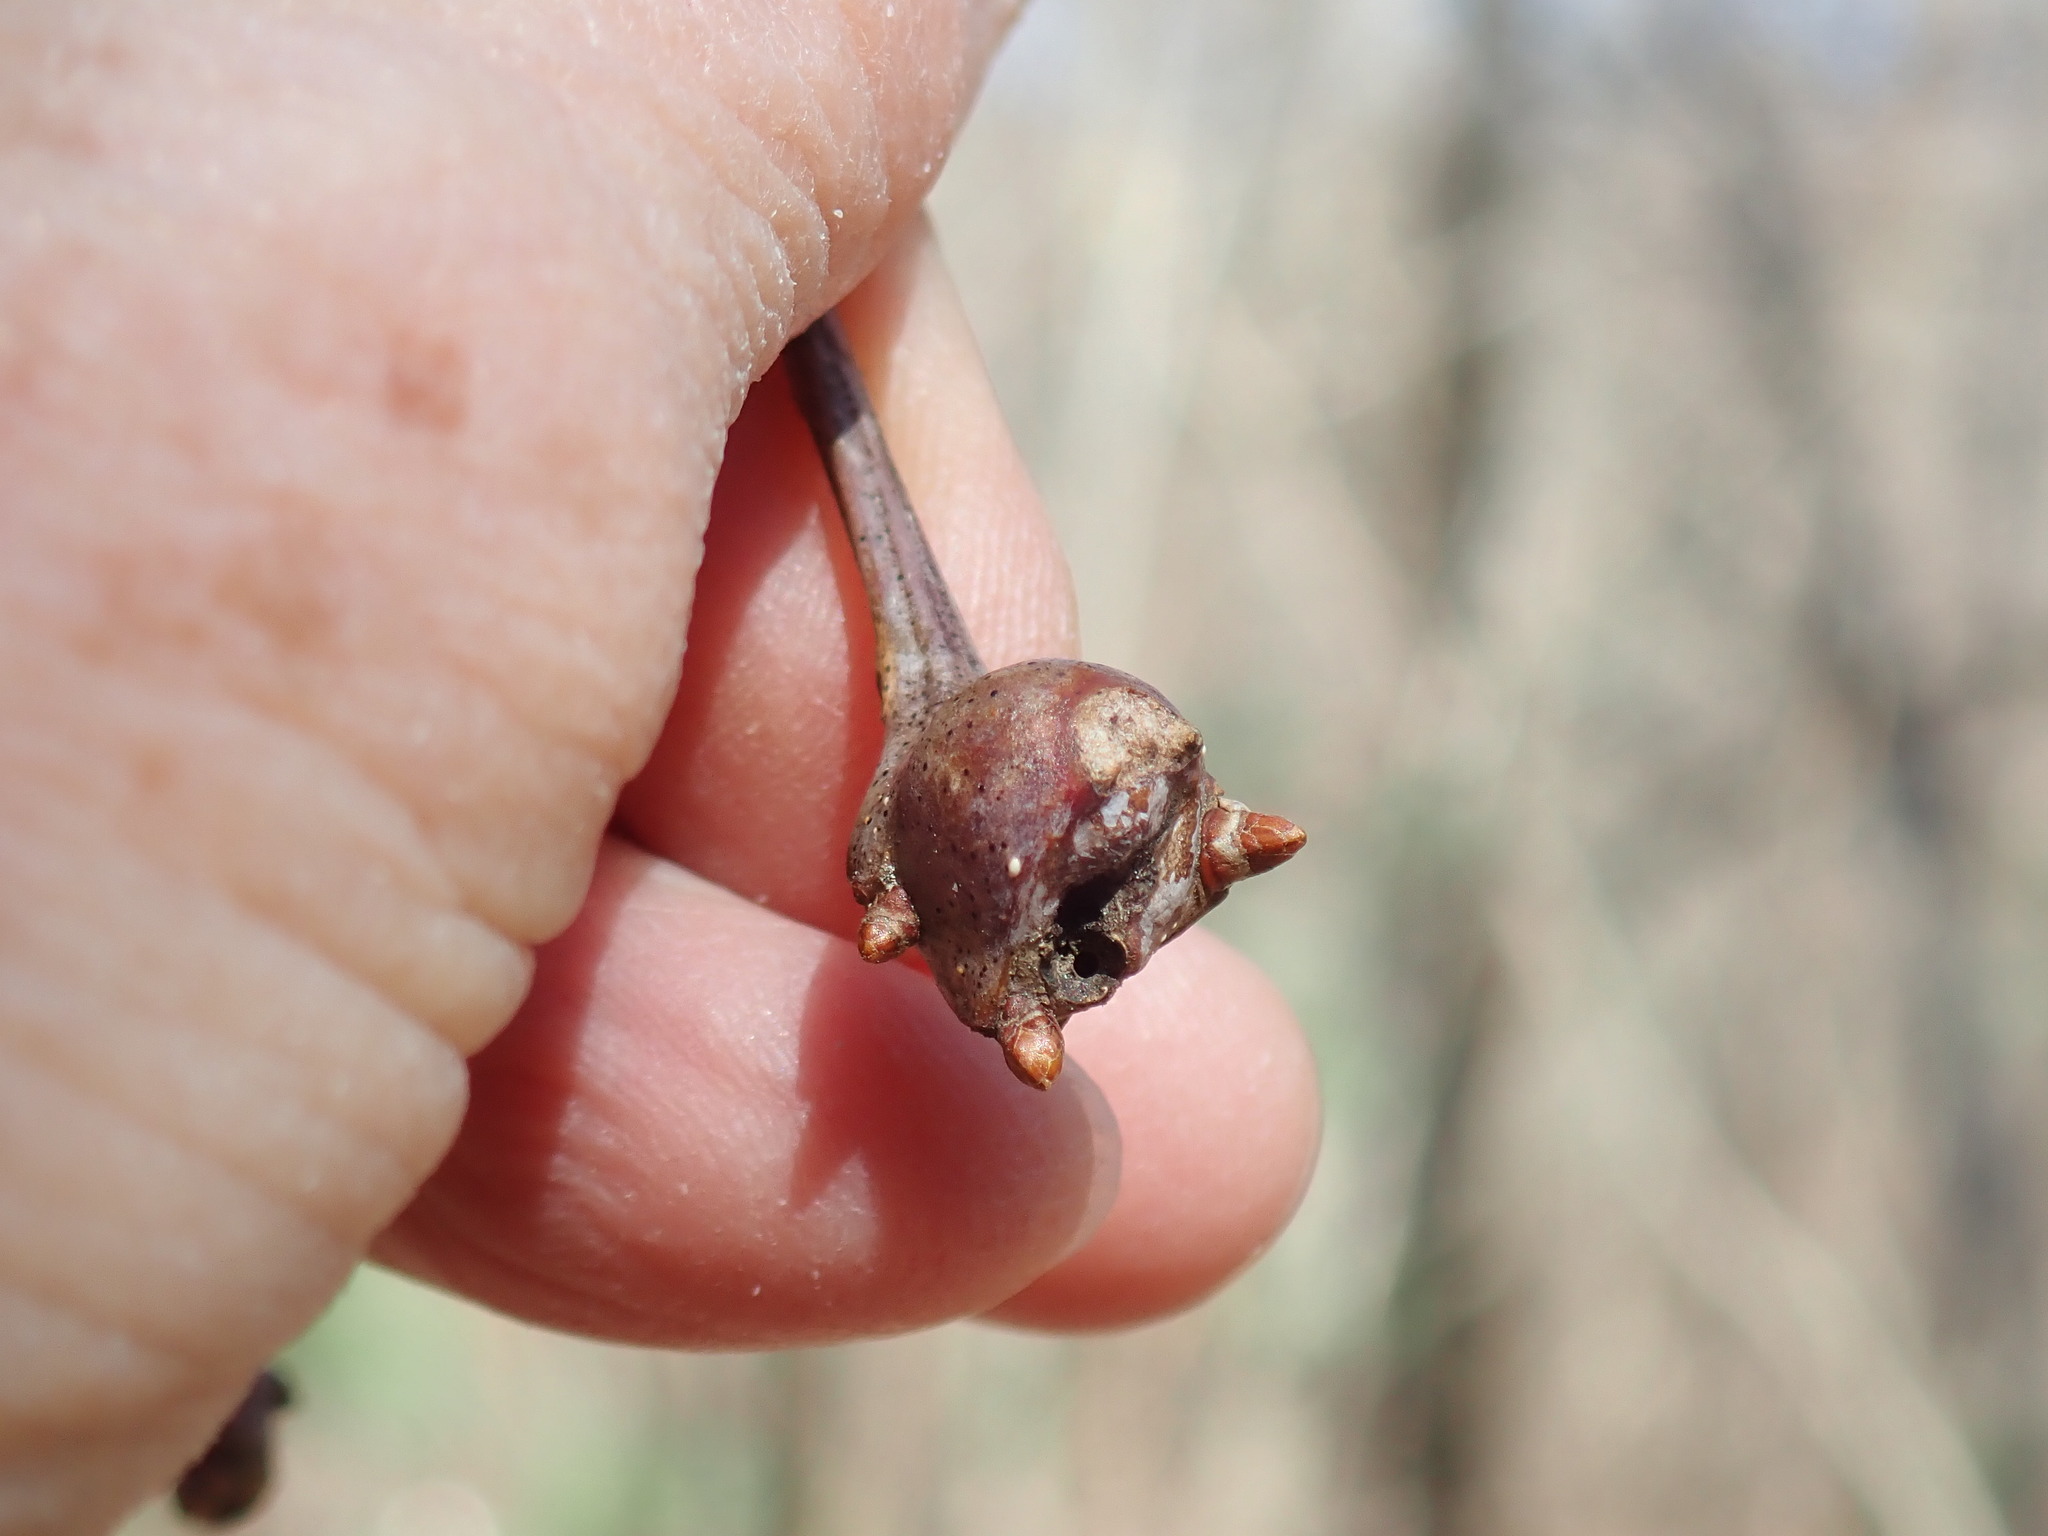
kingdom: Animalia
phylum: Arthropoda
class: Insecta
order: Hymenoptera
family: Cynipidae
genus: Callirhytis
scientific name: Callirhytis clavula
